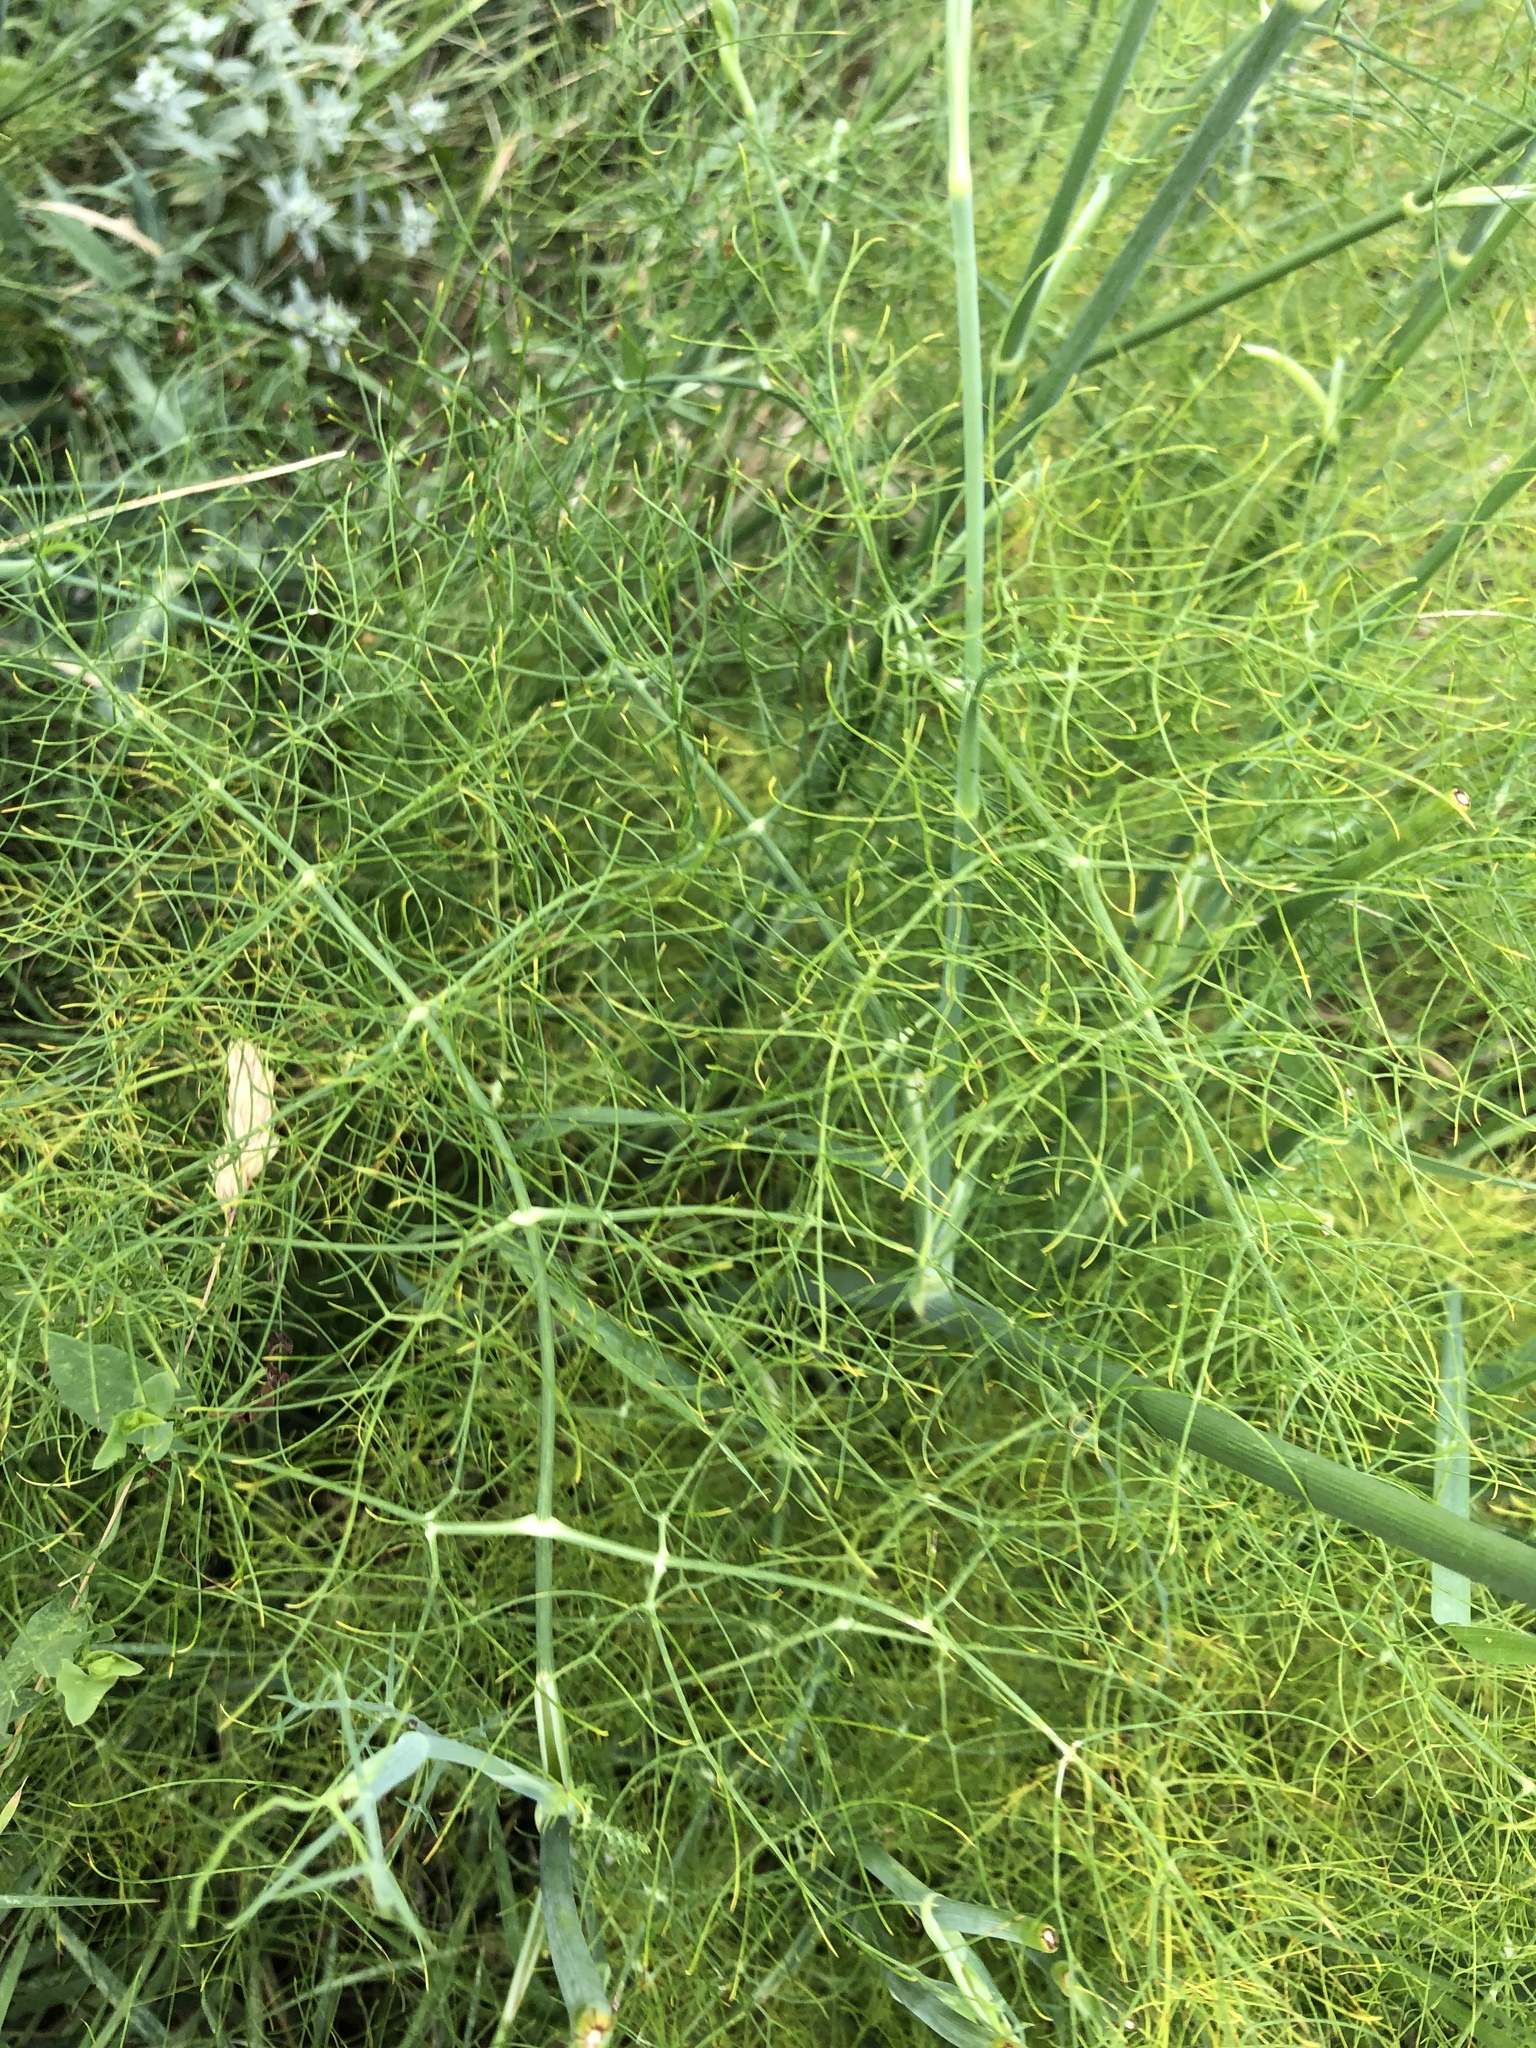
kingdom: Plantae
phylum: Tracheophyta
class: Magnoliopsida
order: Apiales
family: Apiaceae
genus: Foeniculum
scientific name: Foeniculum vulgare
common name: Fennel
